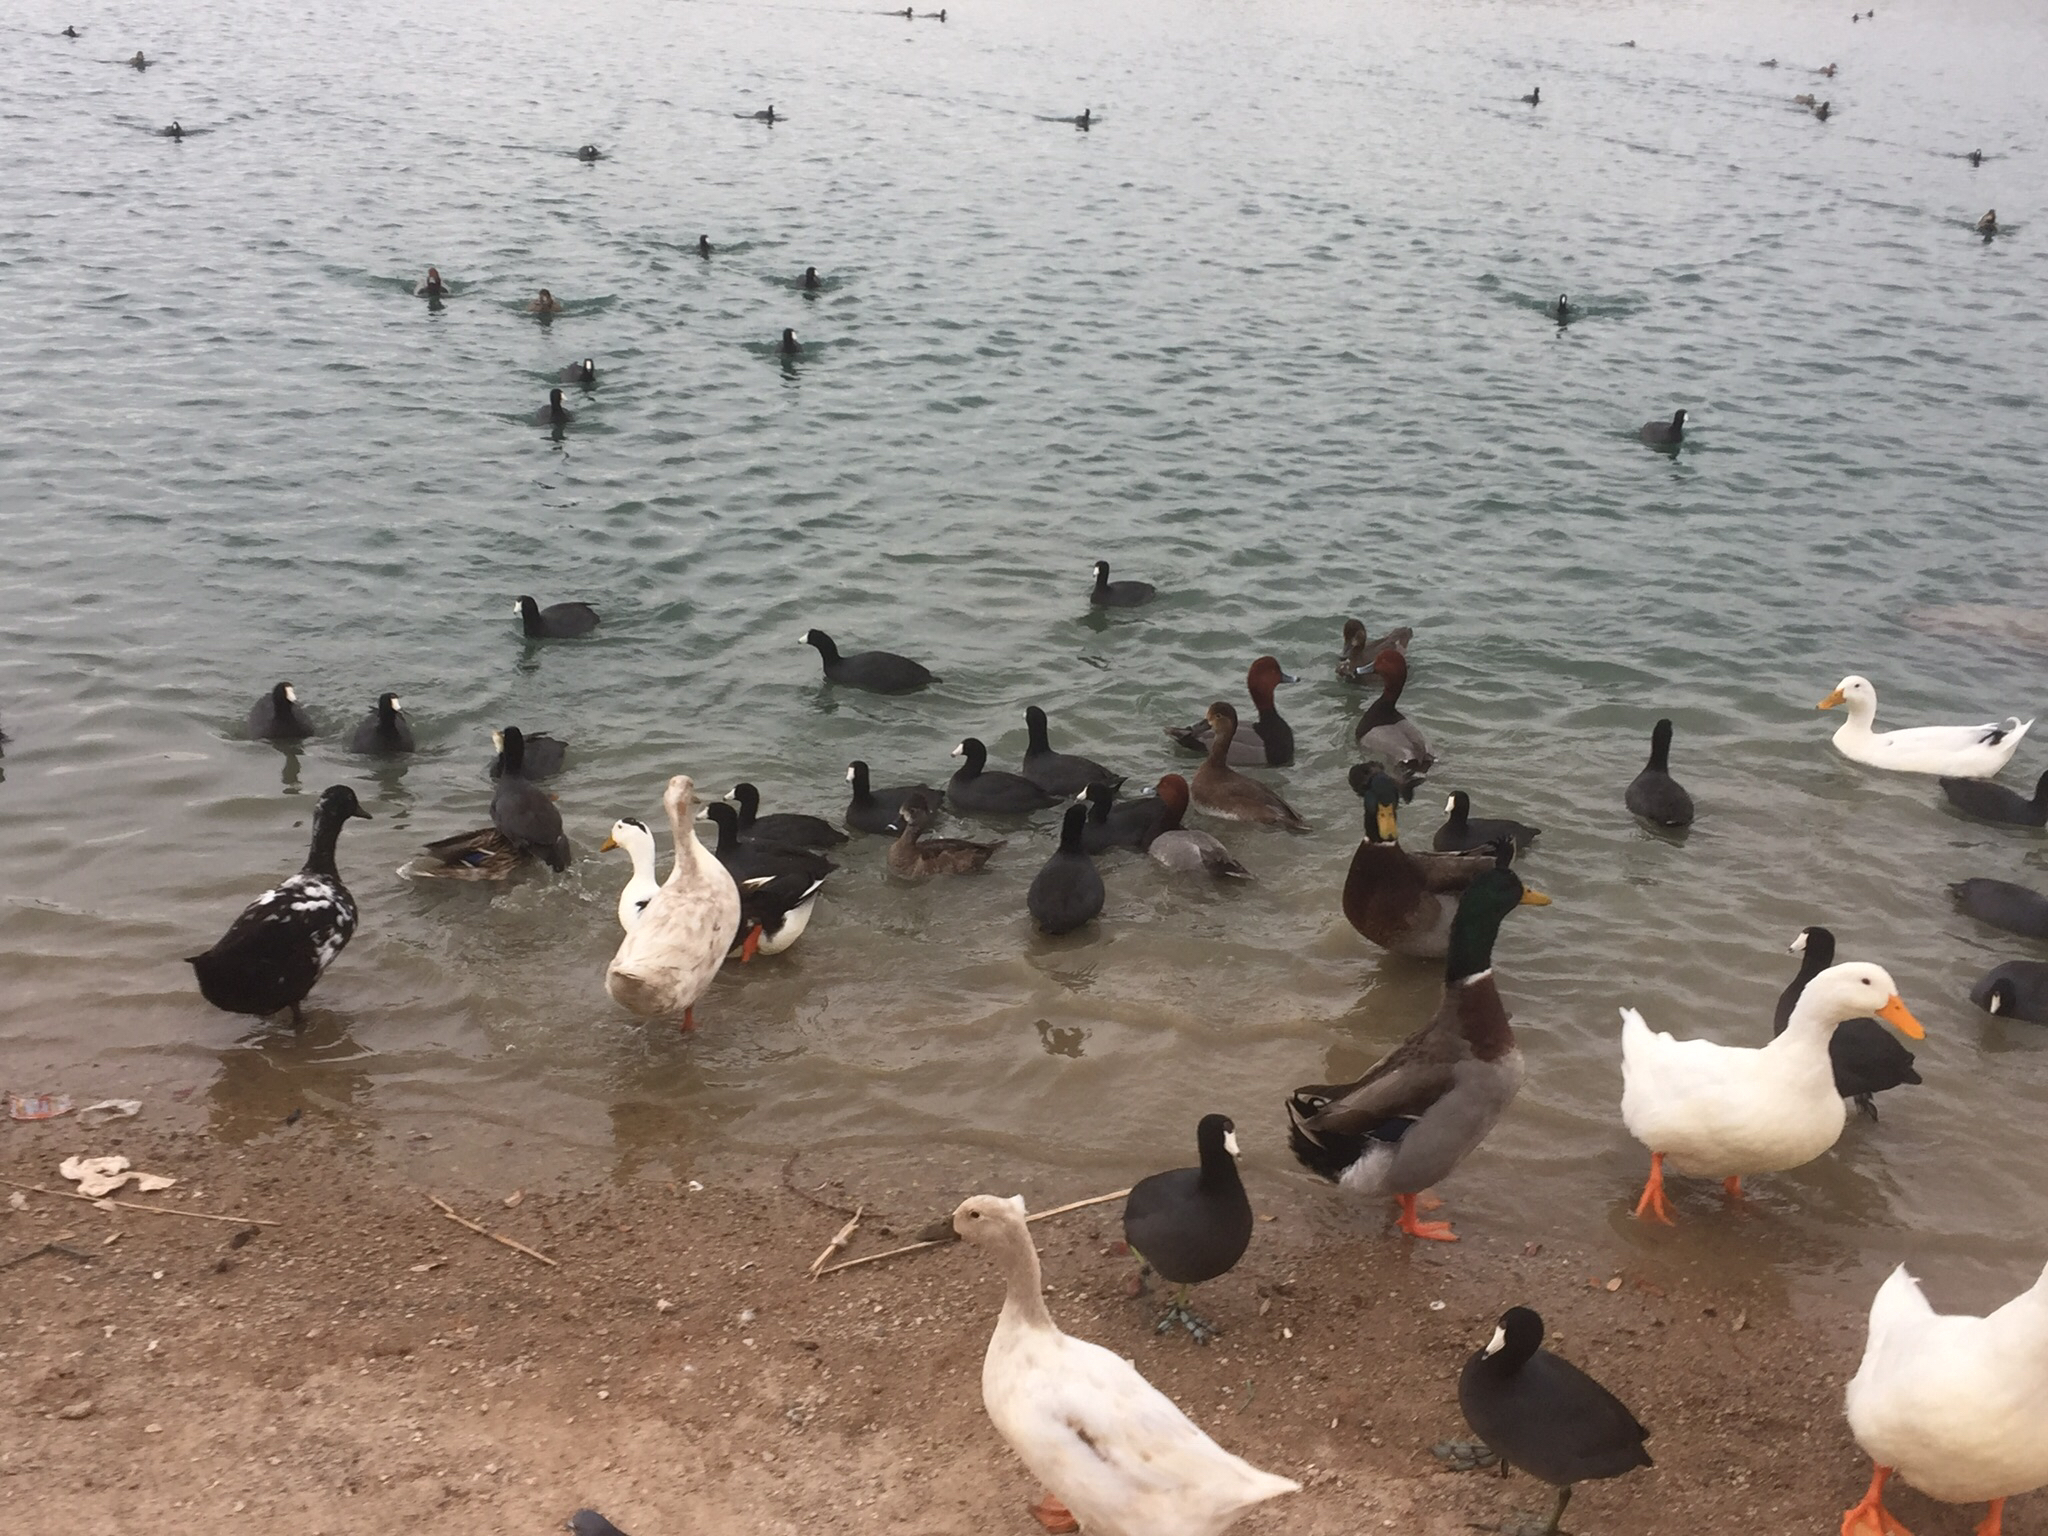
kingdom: Animalia
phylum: Chordata
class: Aves
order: Anseriformes
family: Anatidae
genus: Anas
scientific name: Anas platyrhynchos
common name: Mallard
